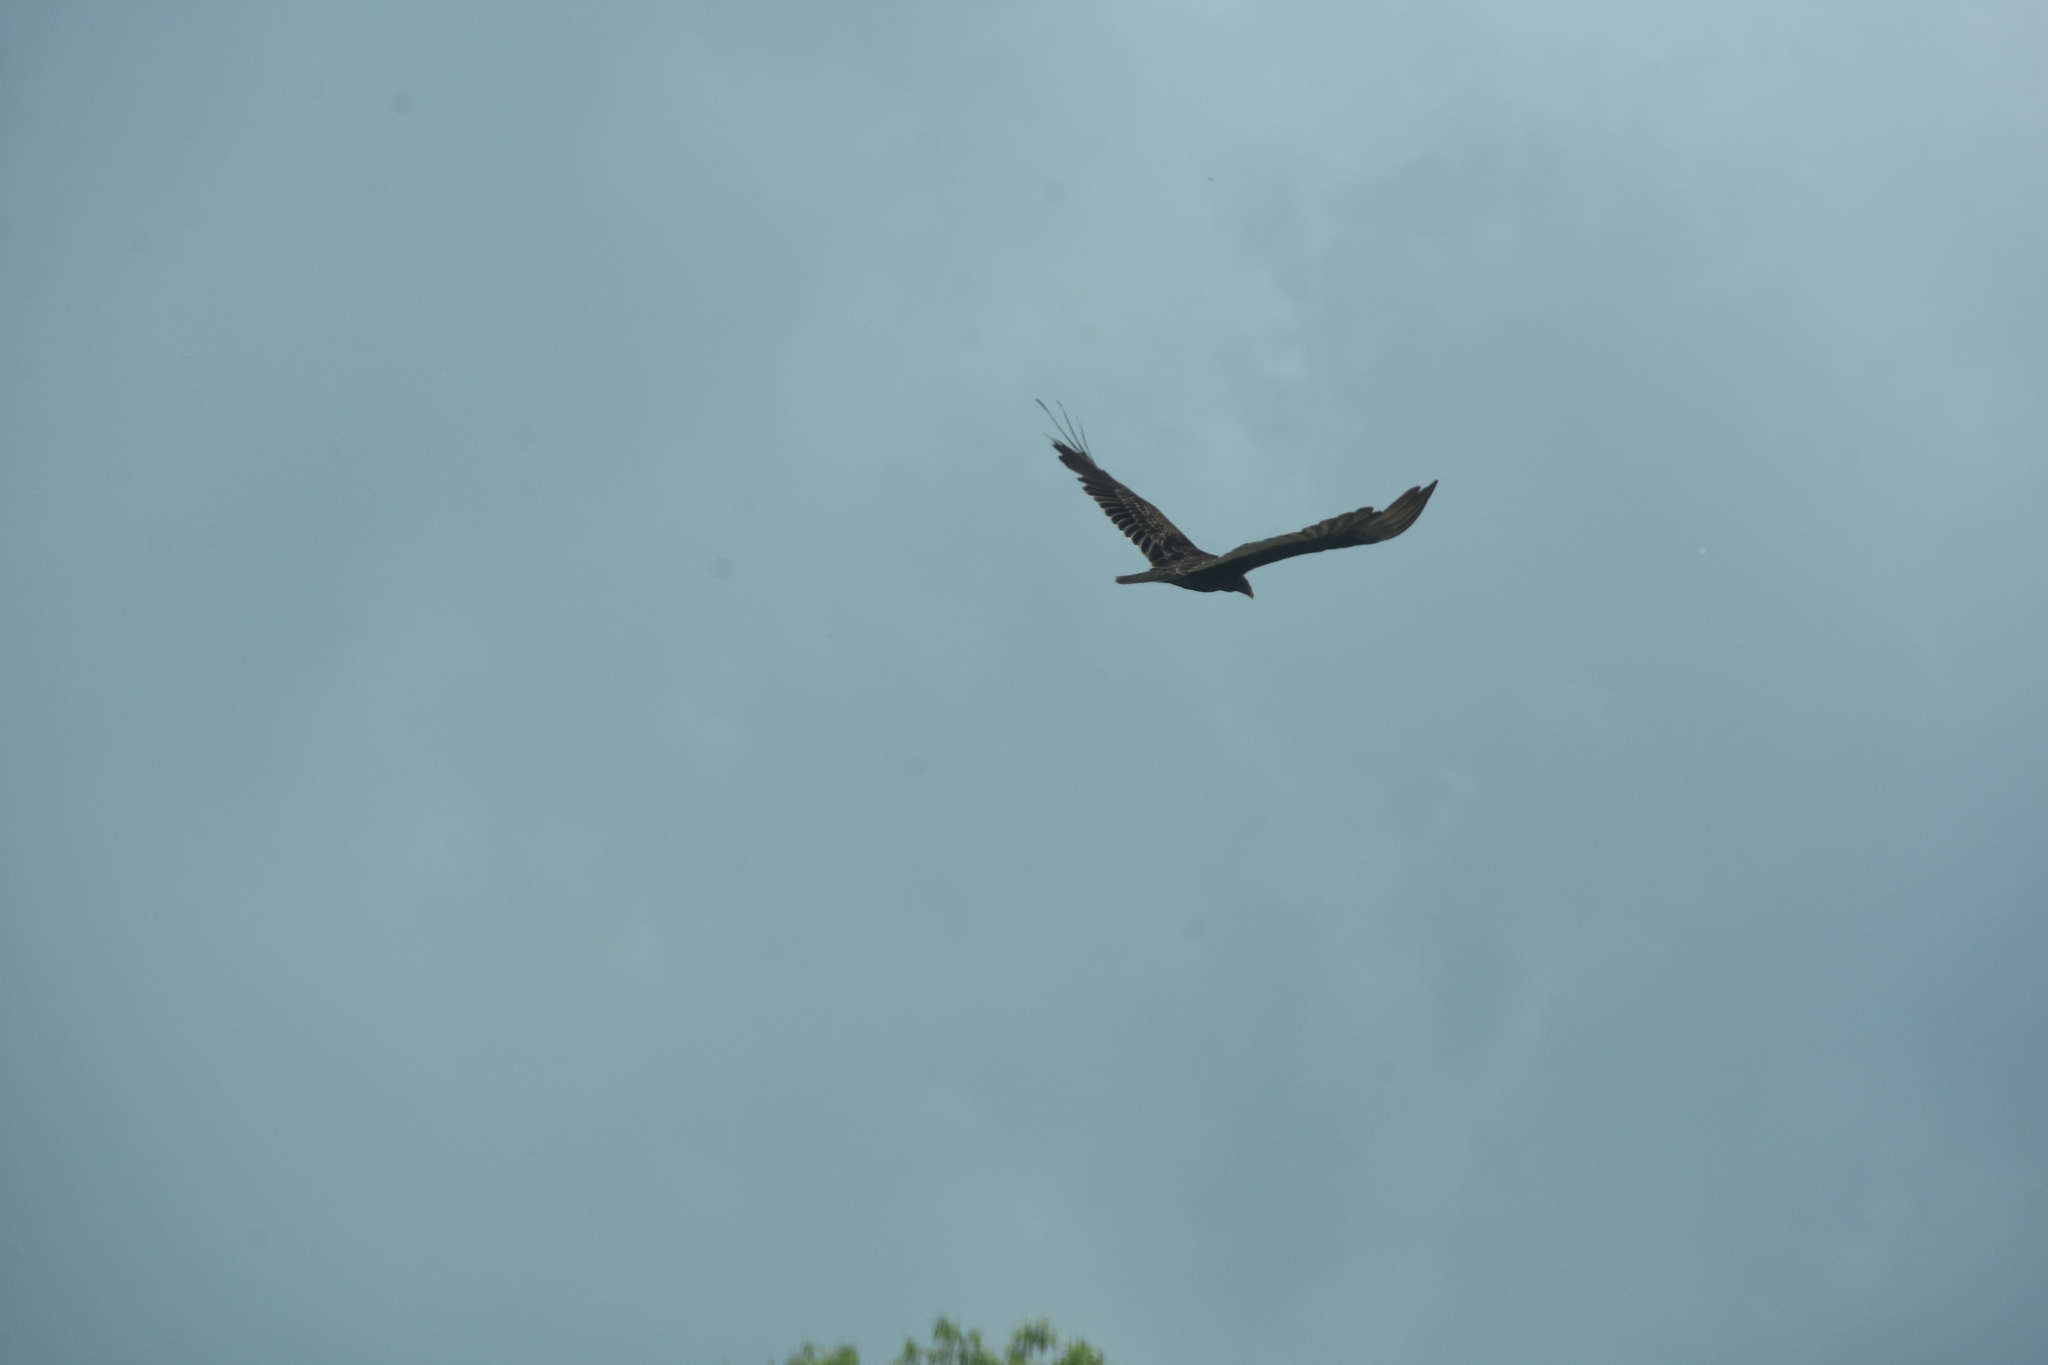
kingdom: Animalia
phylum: Chordata
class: Aves
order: Accipitriformes
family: Cathartidae
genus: Cathartes
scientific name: Cathartes aura
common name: Turkey vulture
